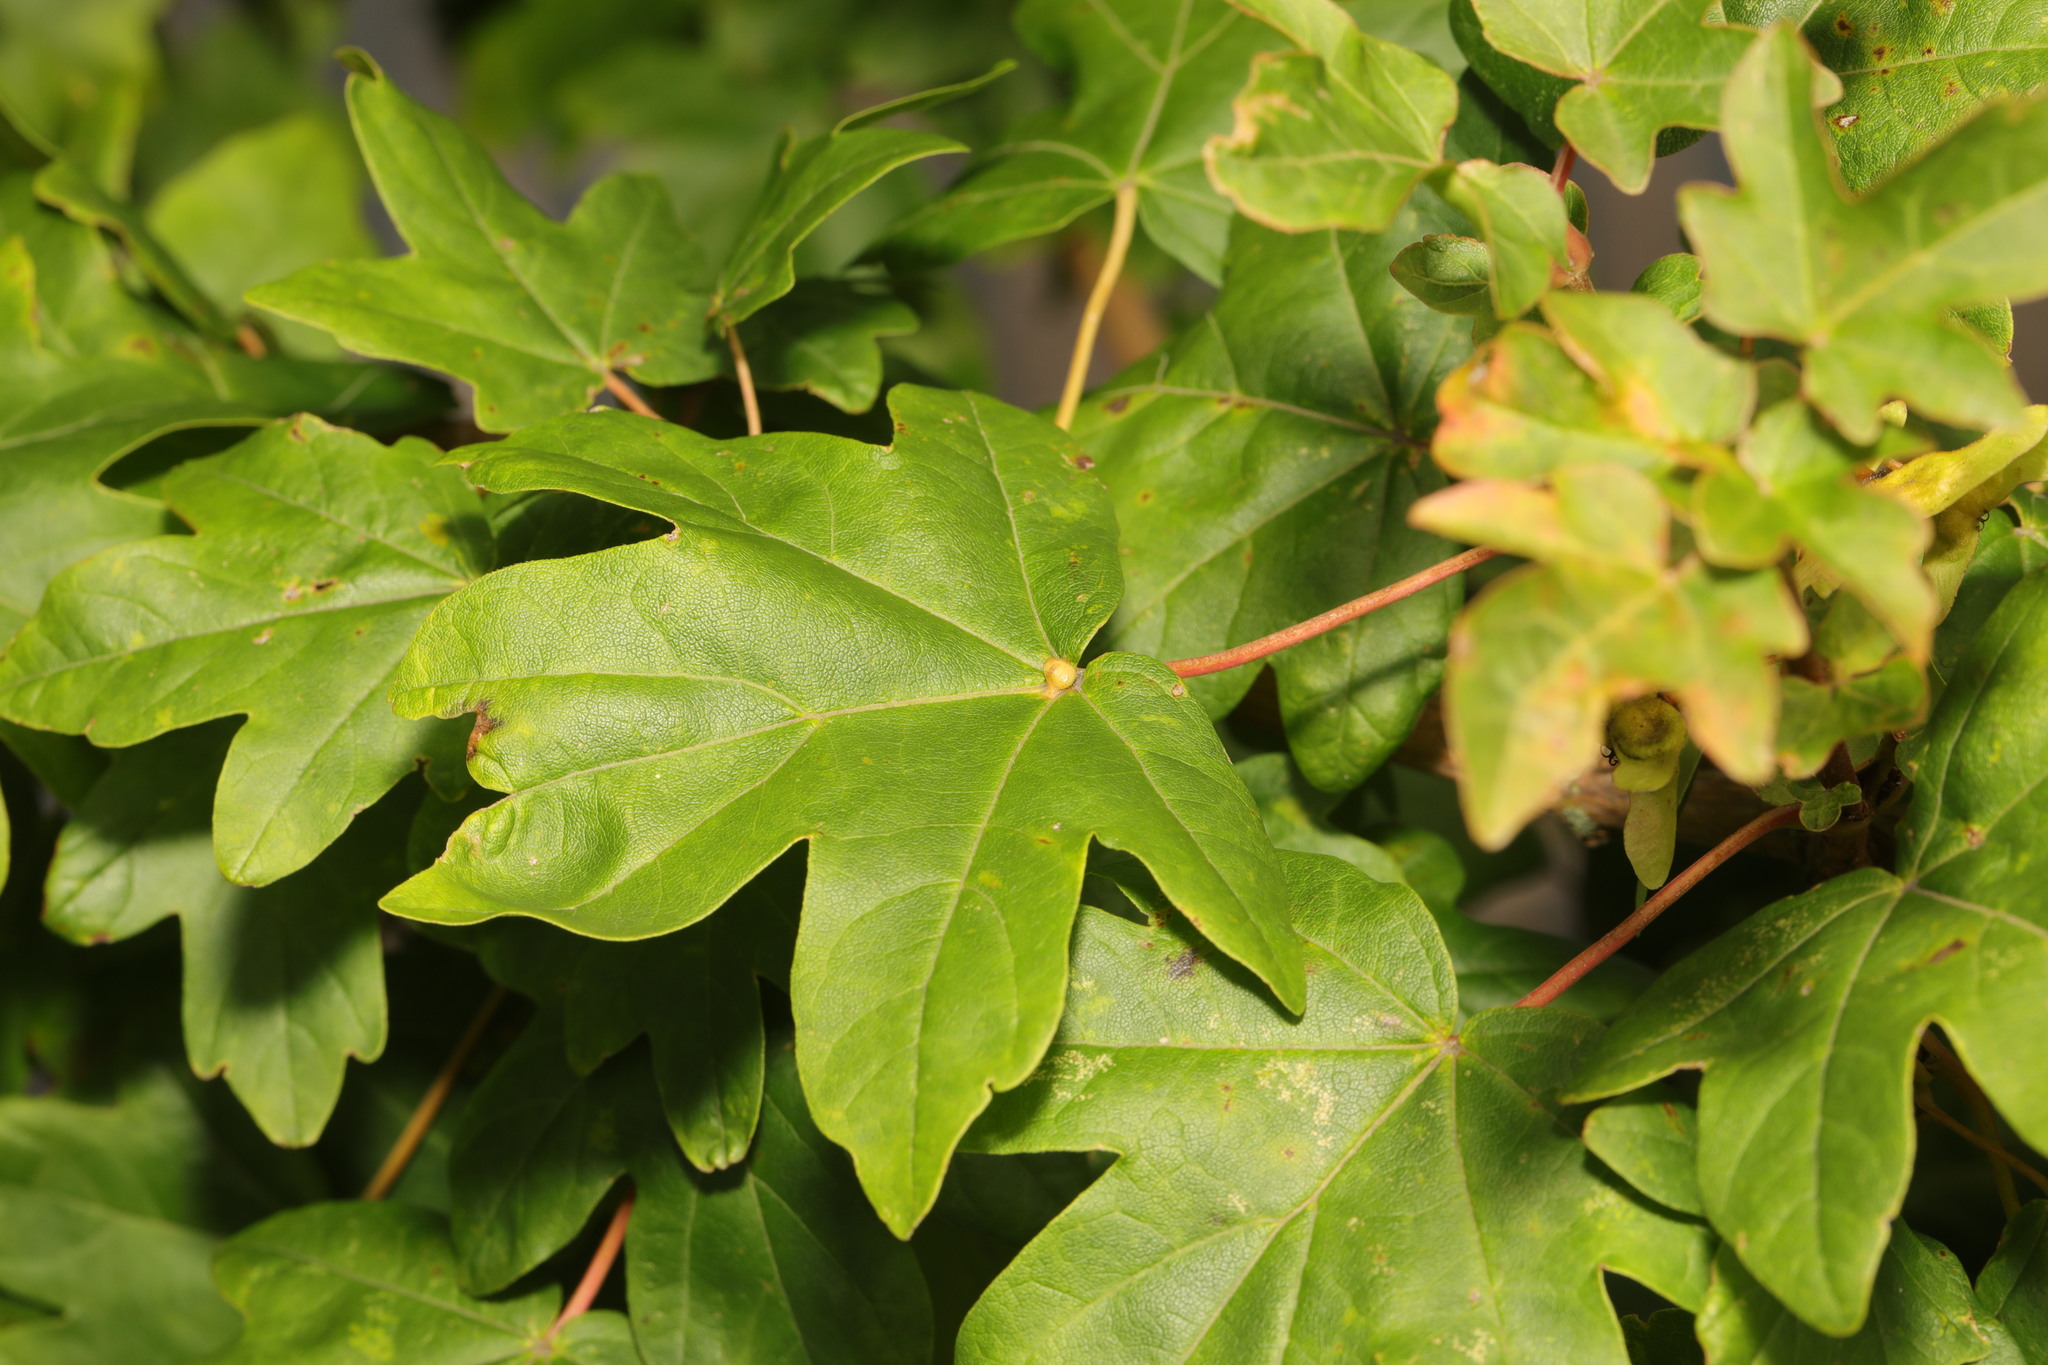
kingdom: Plantae
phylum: Tracheophyta
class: Magnoliopsida
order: Sapindales
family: Sapindaceae
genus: Acer
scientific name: Acer campestre
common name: Field maple
